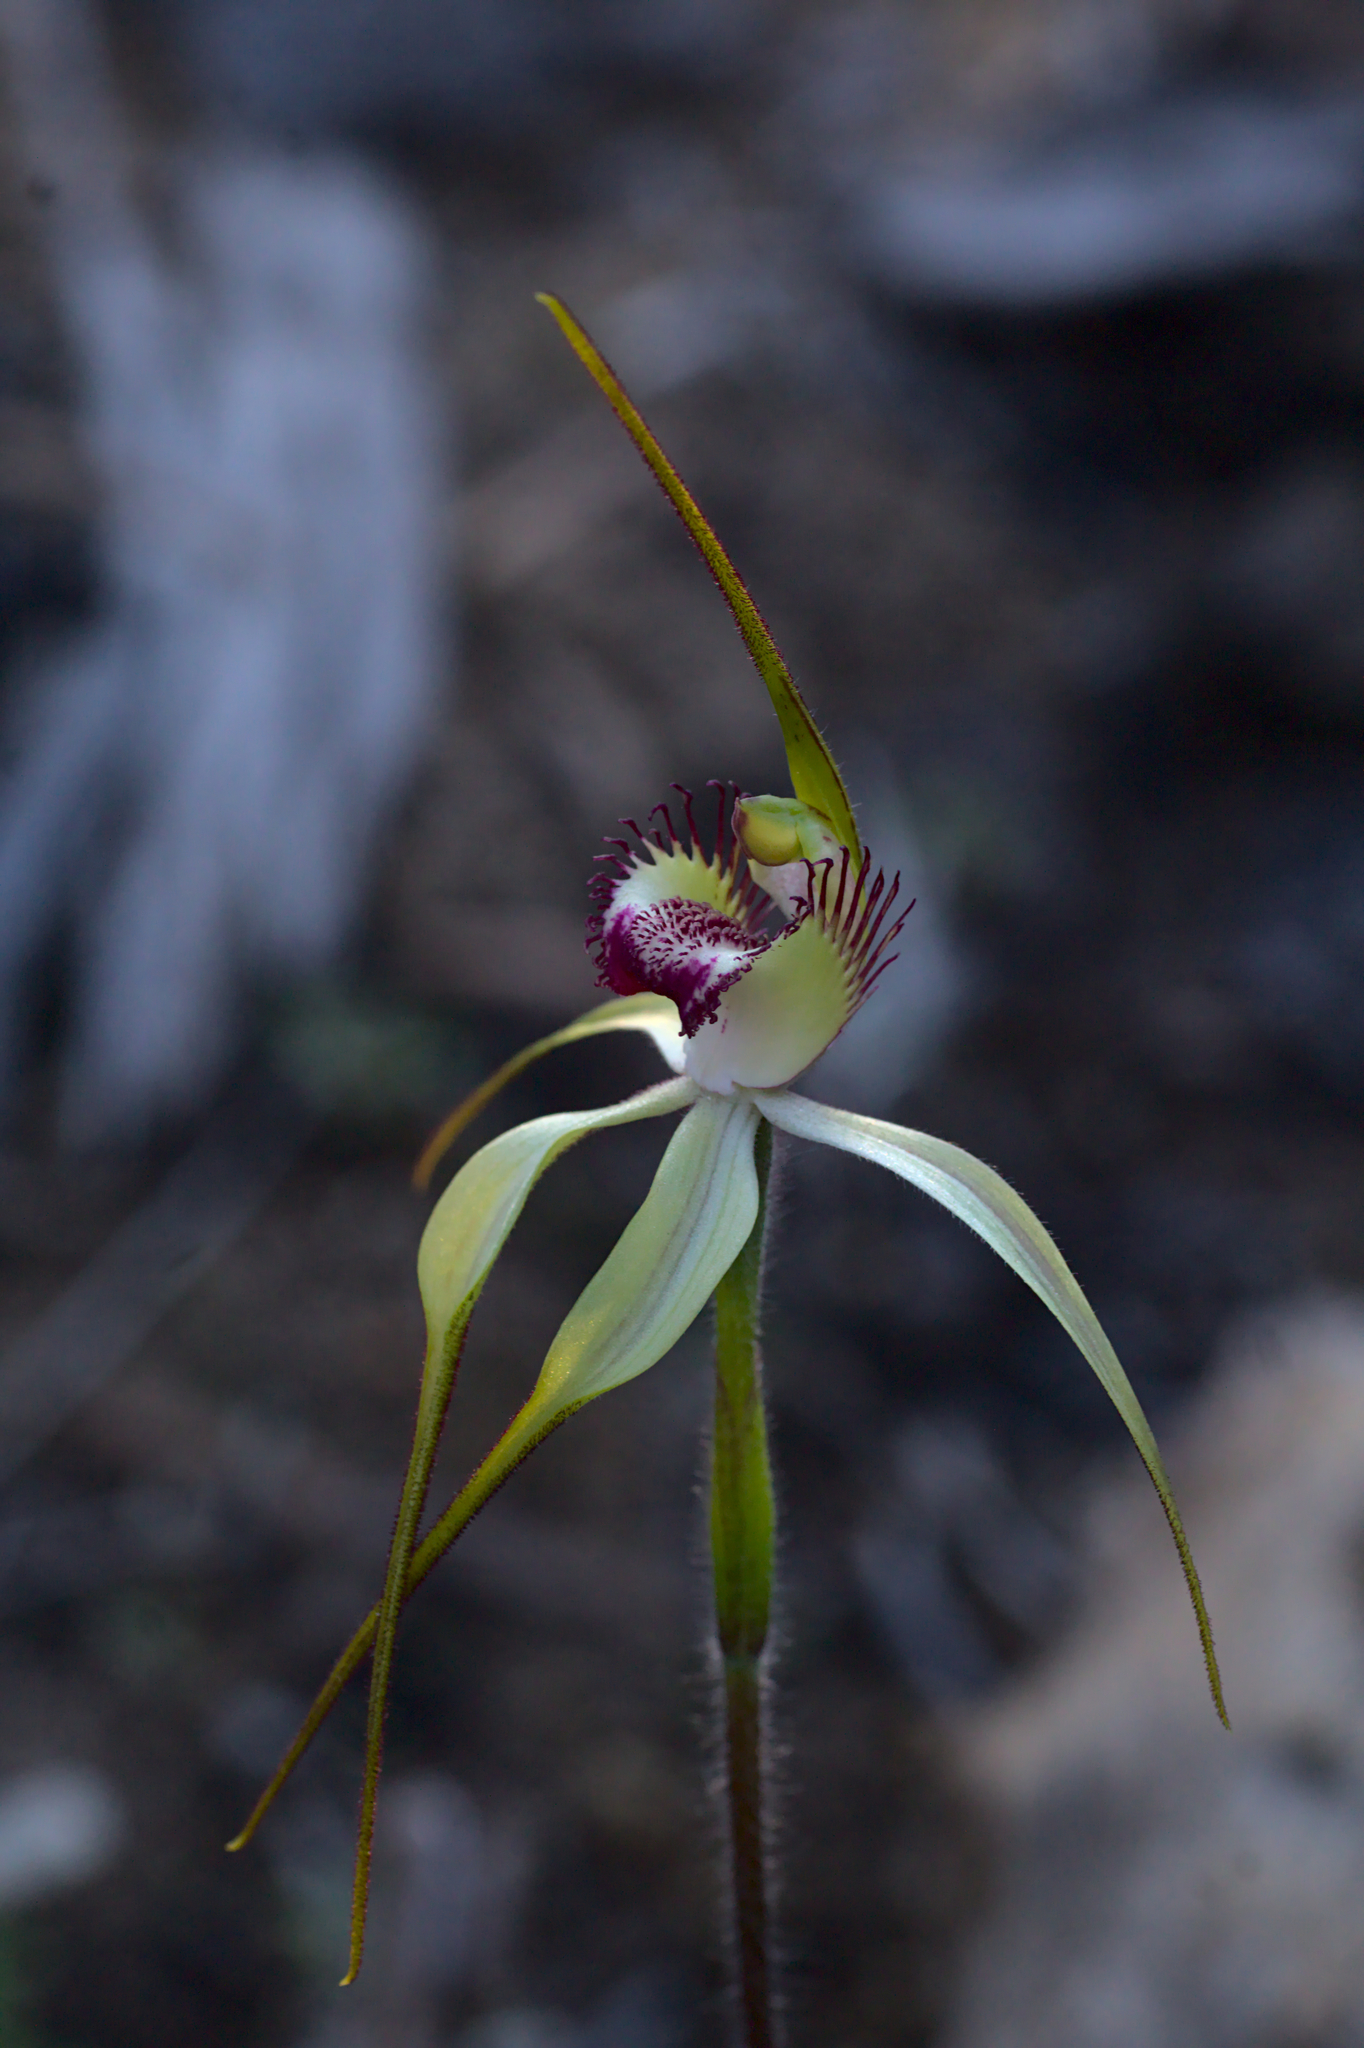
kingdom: Plantae
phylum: Tracheophyta
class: Liliopsida
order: Asparagales
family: Orchidaceae
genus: Caladenia
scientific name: Caladenia coactescens
